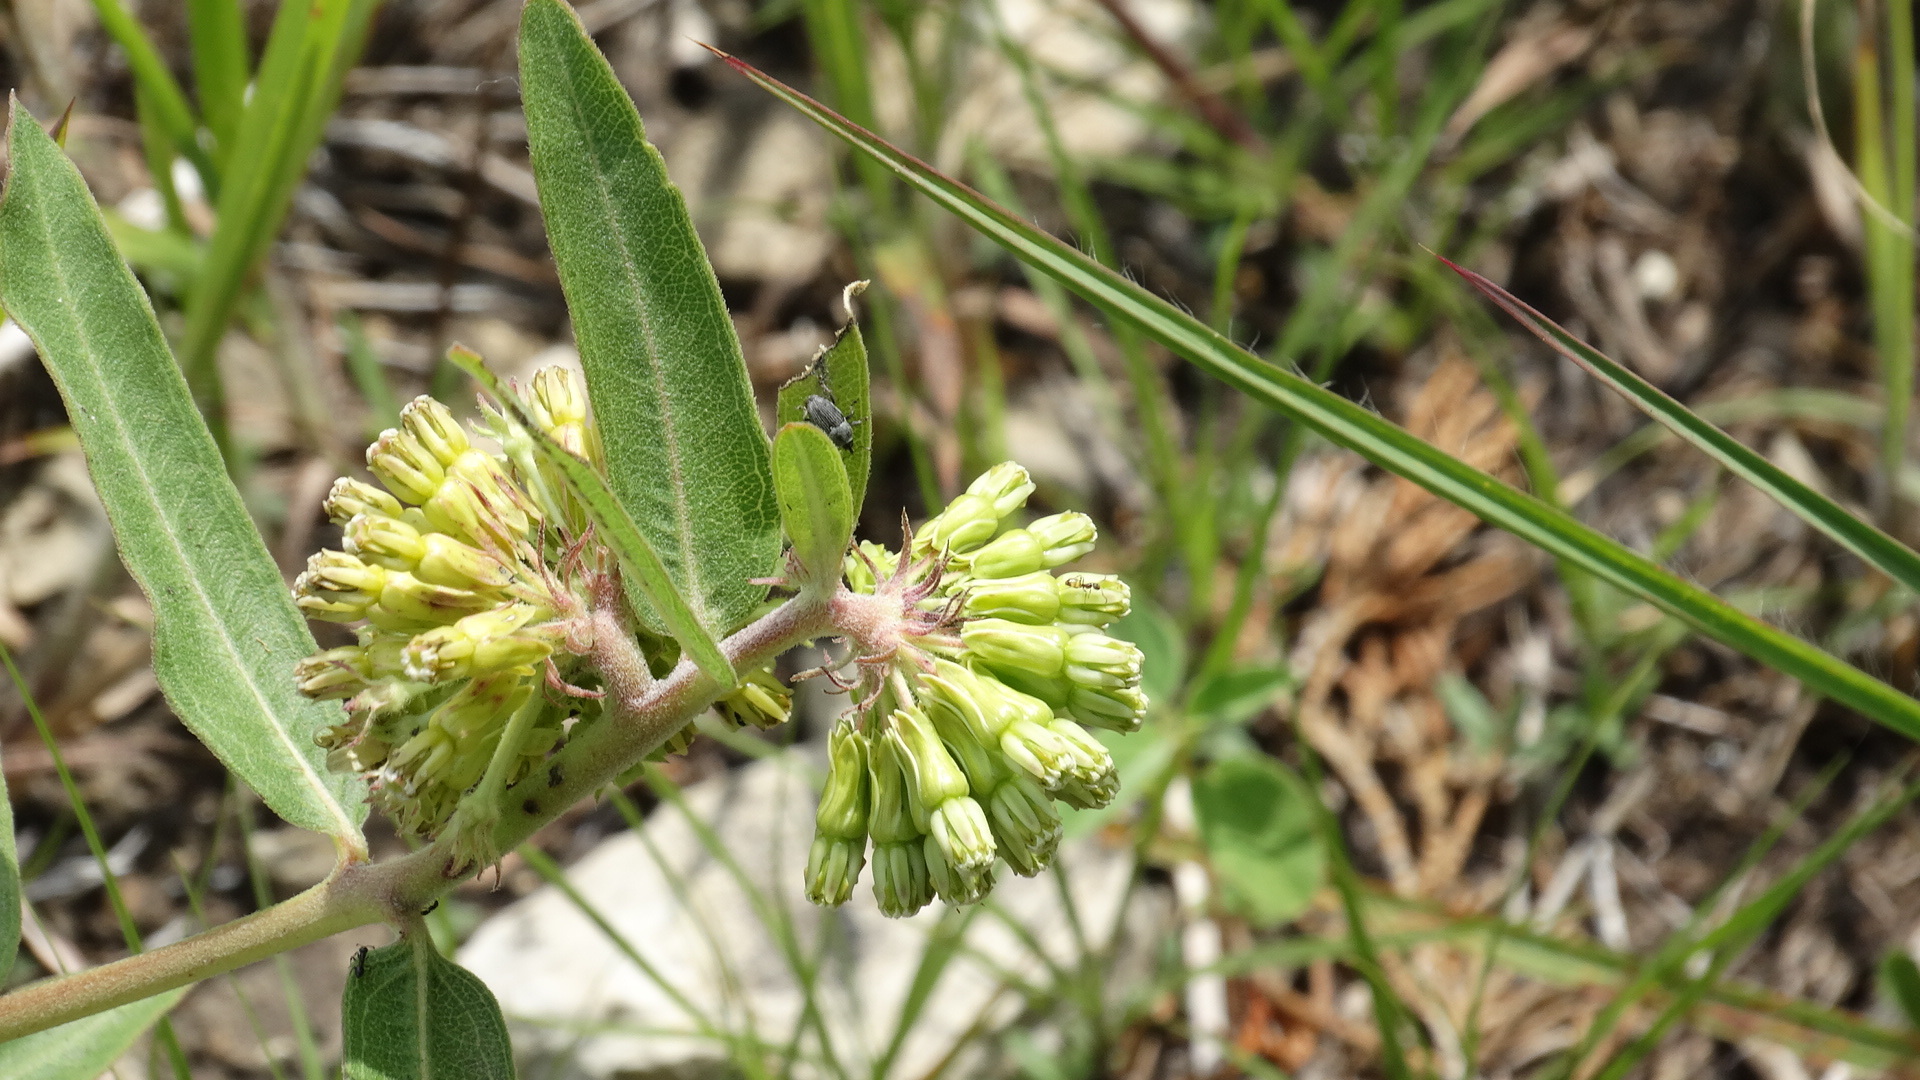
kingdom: Plantae
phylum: Tracheophyta
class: Magnoliopsida
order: Gentianales
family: Apocynaceae
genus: Asclepias
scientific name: Asclepias viridiflora
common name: Green comet milkweed
